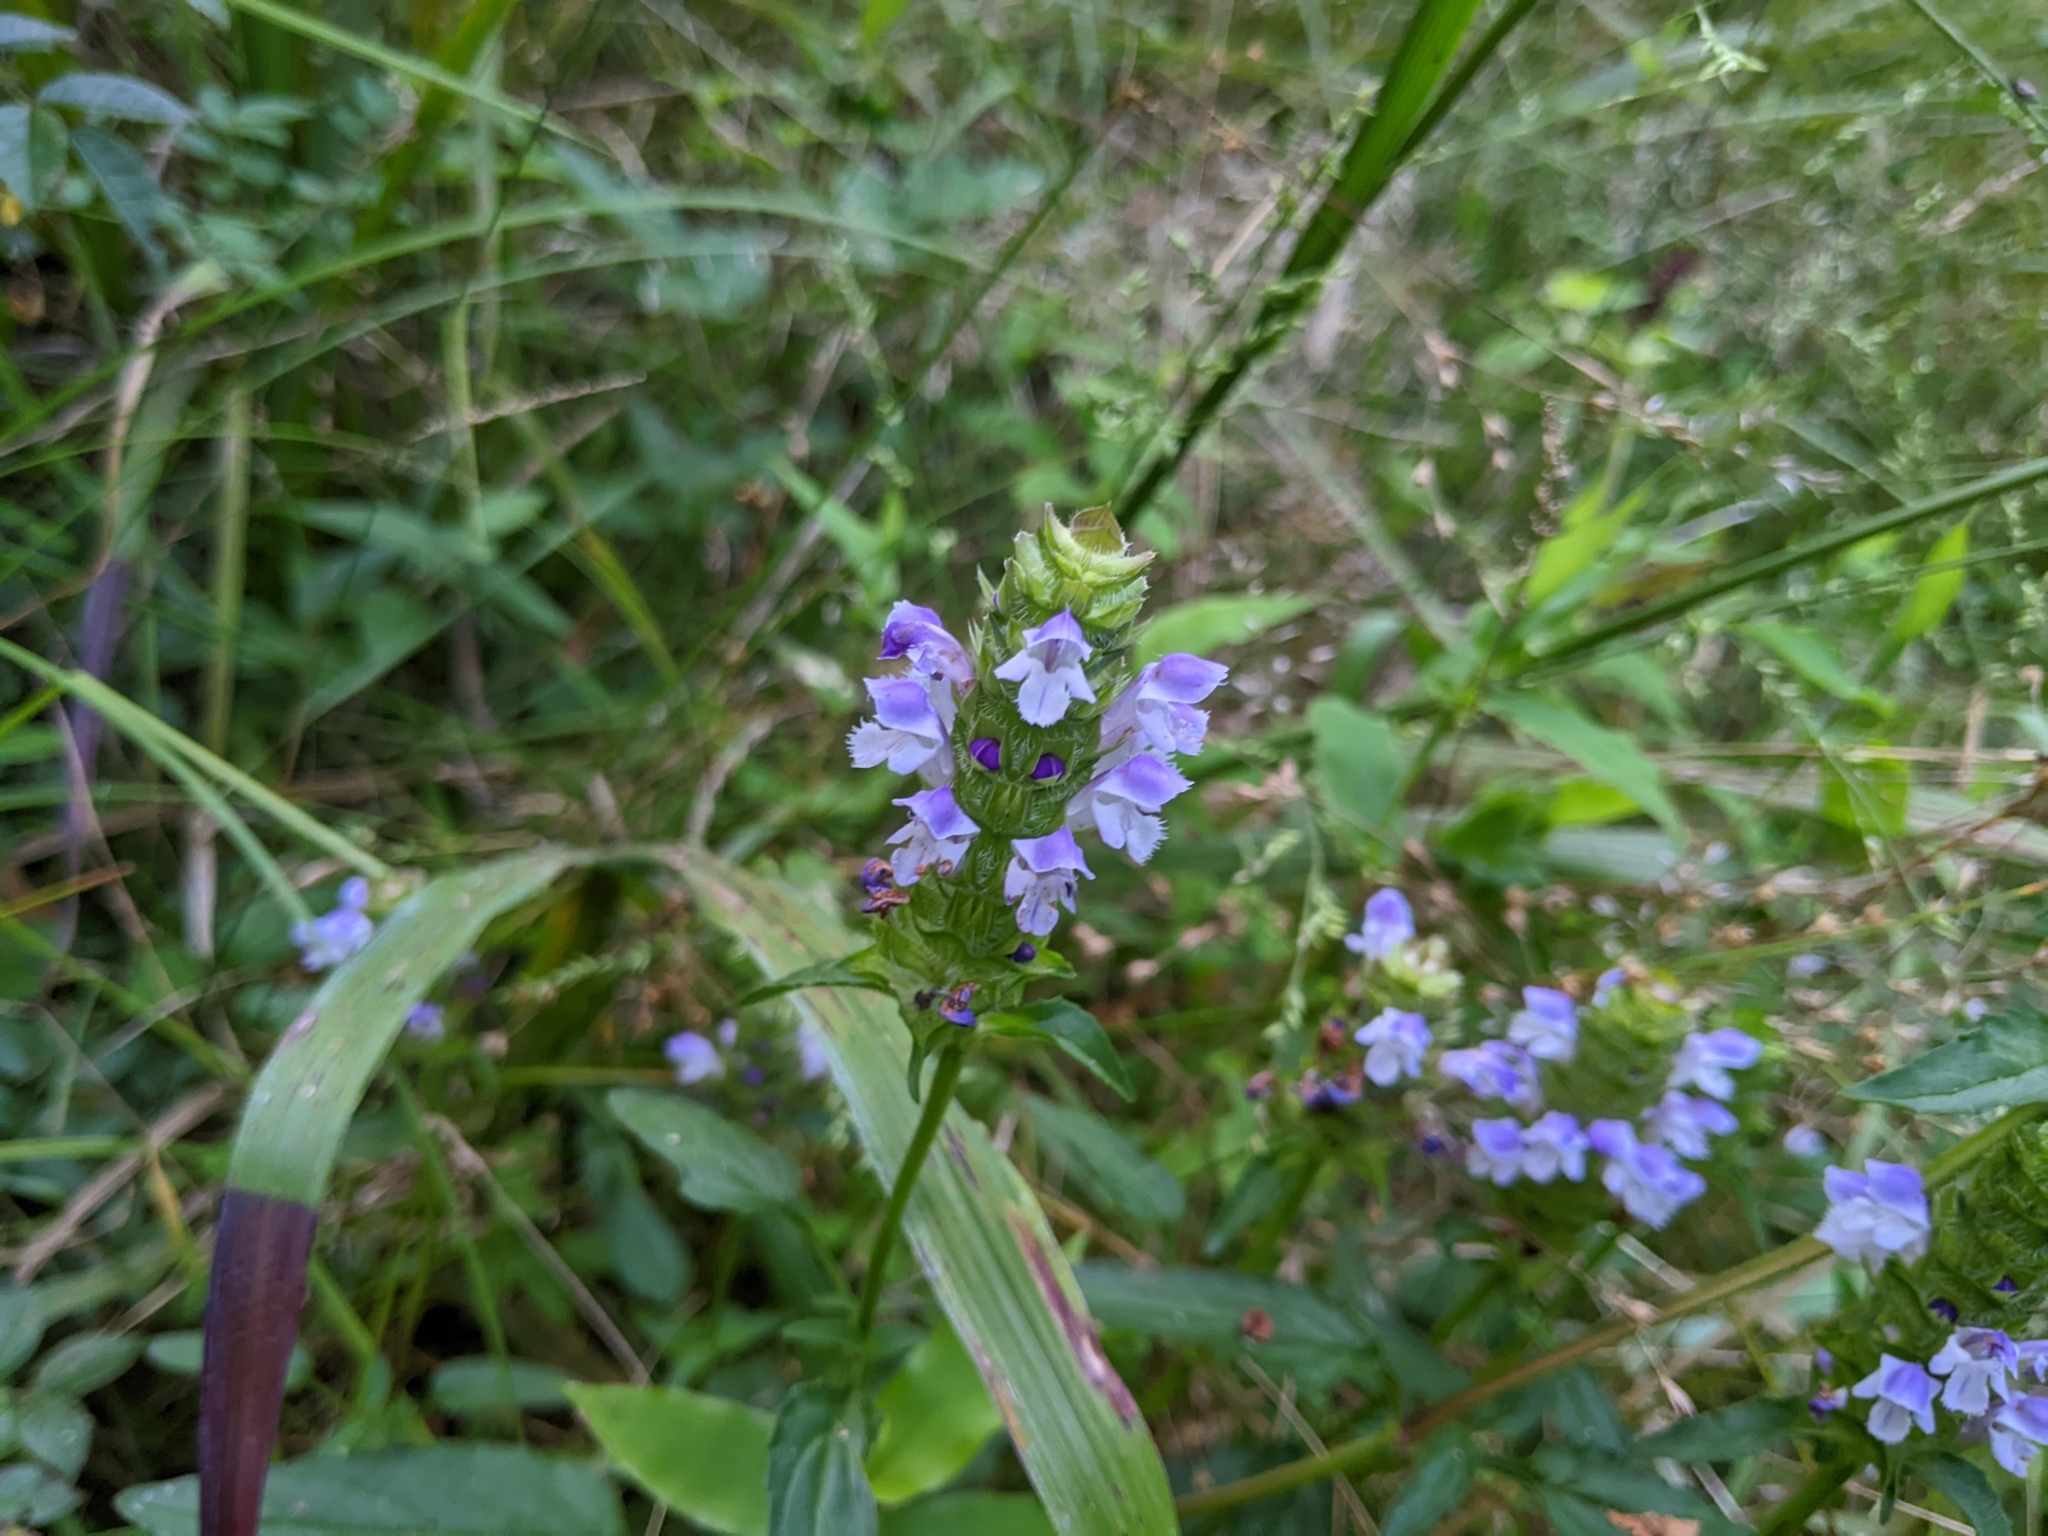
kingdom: Plantae
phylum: Tracheophyta
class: Magnoliopsida
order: Lamiales
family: Lamiaceae
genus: Prunella
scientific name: Prunella vulgaris
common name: Heal-all
